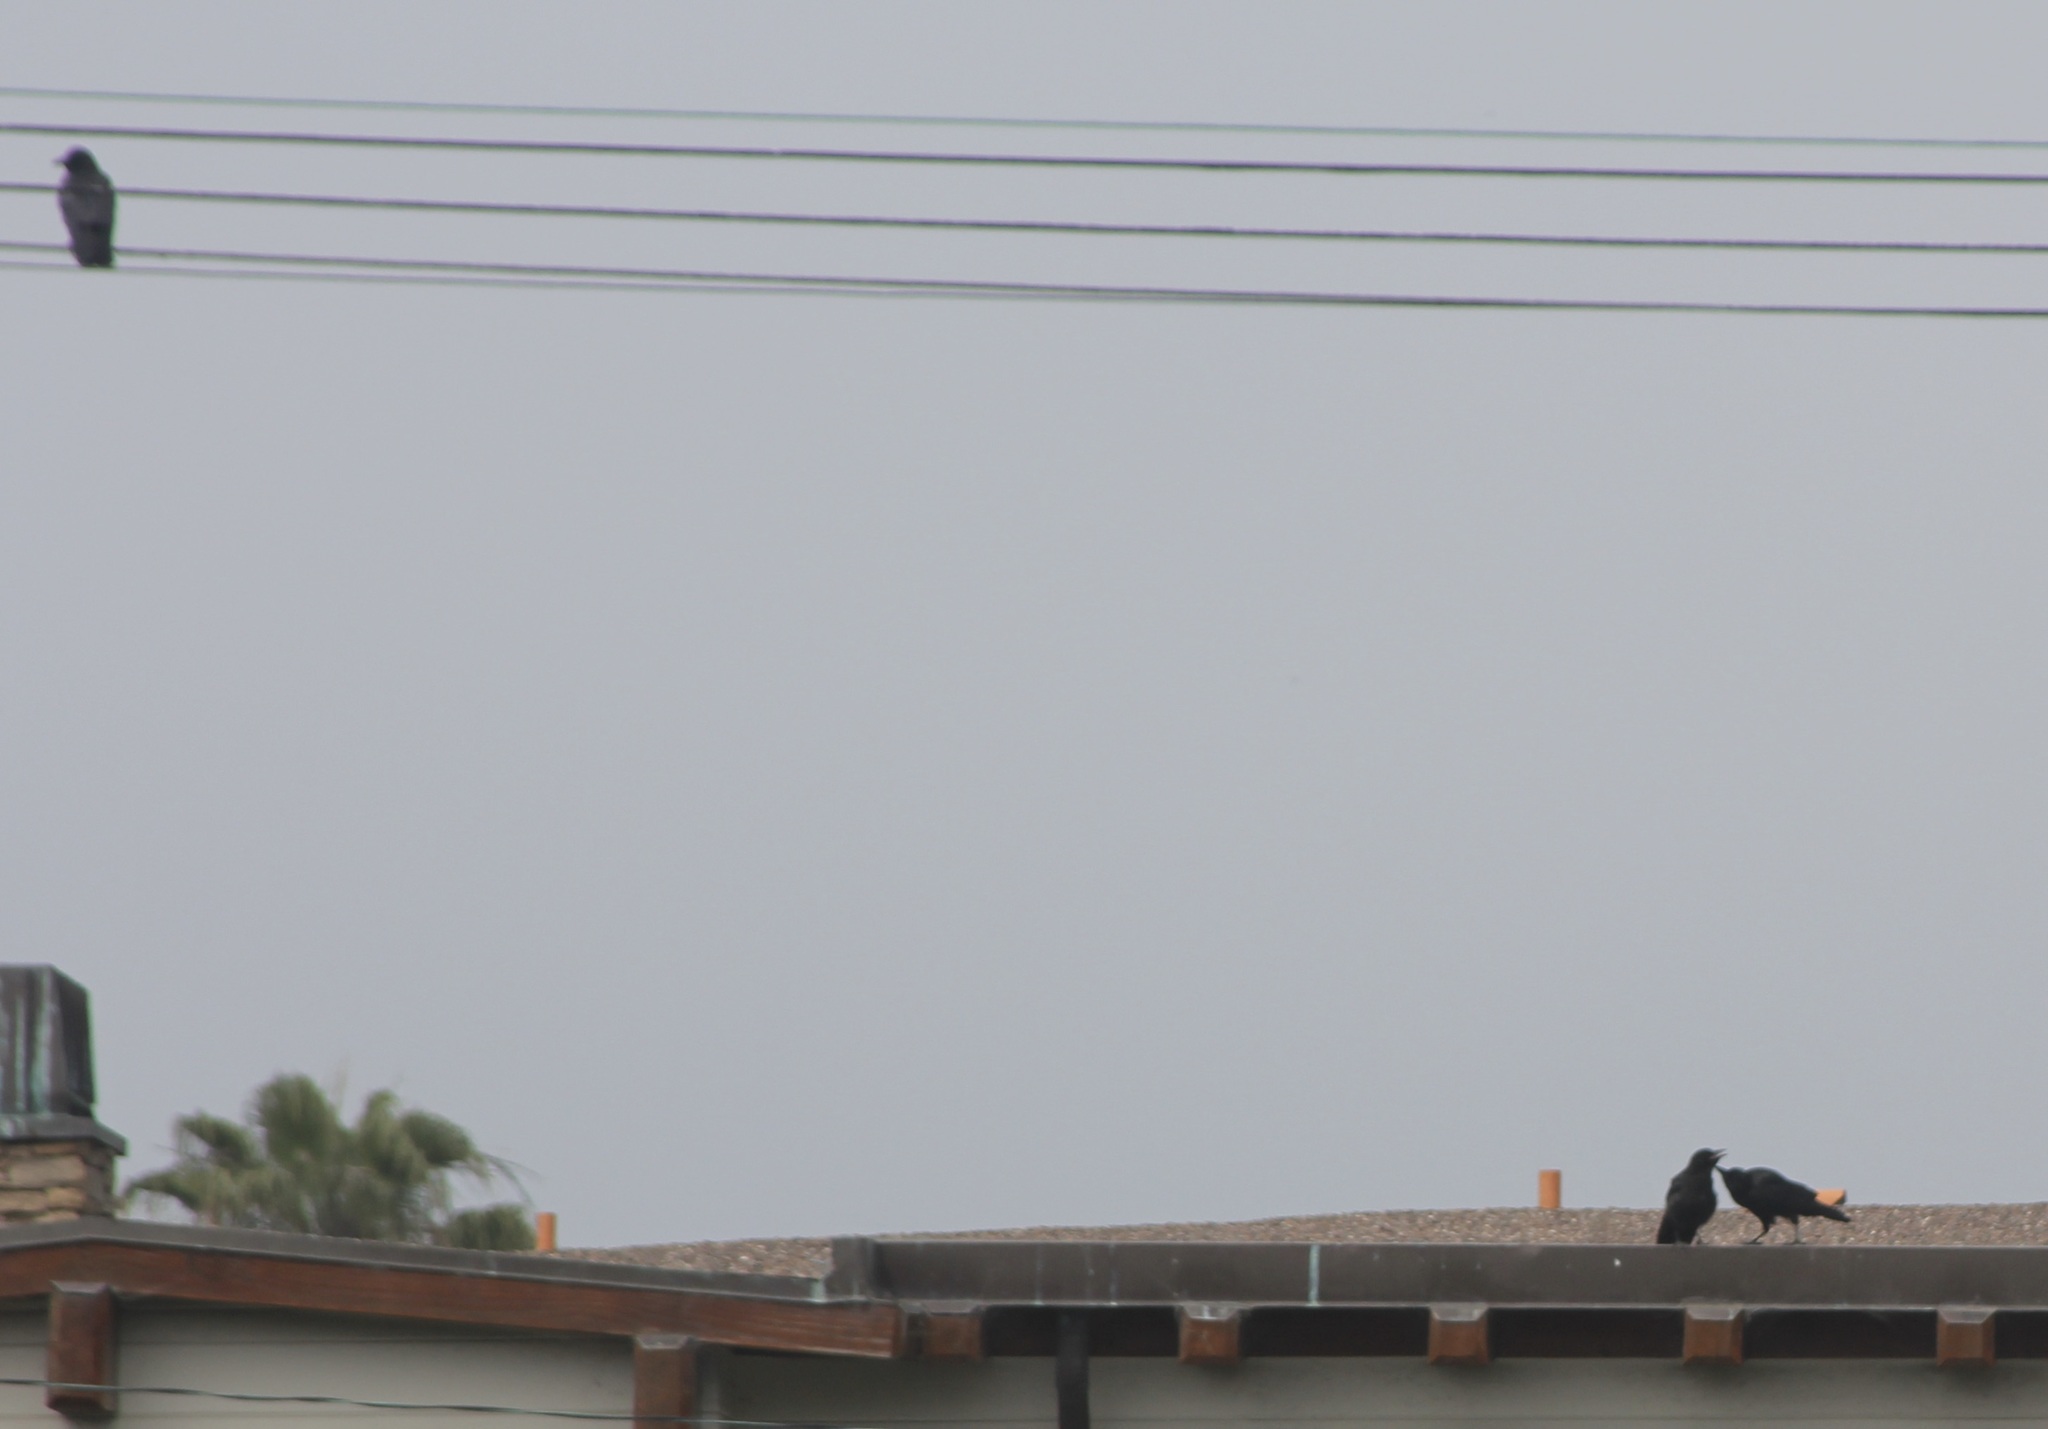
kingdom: Animalia
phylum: Chordata
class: Aves
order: Passeriformes
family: Corvidae
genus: Corvus
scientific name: Corvus brachyrhynchos
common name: American crow
